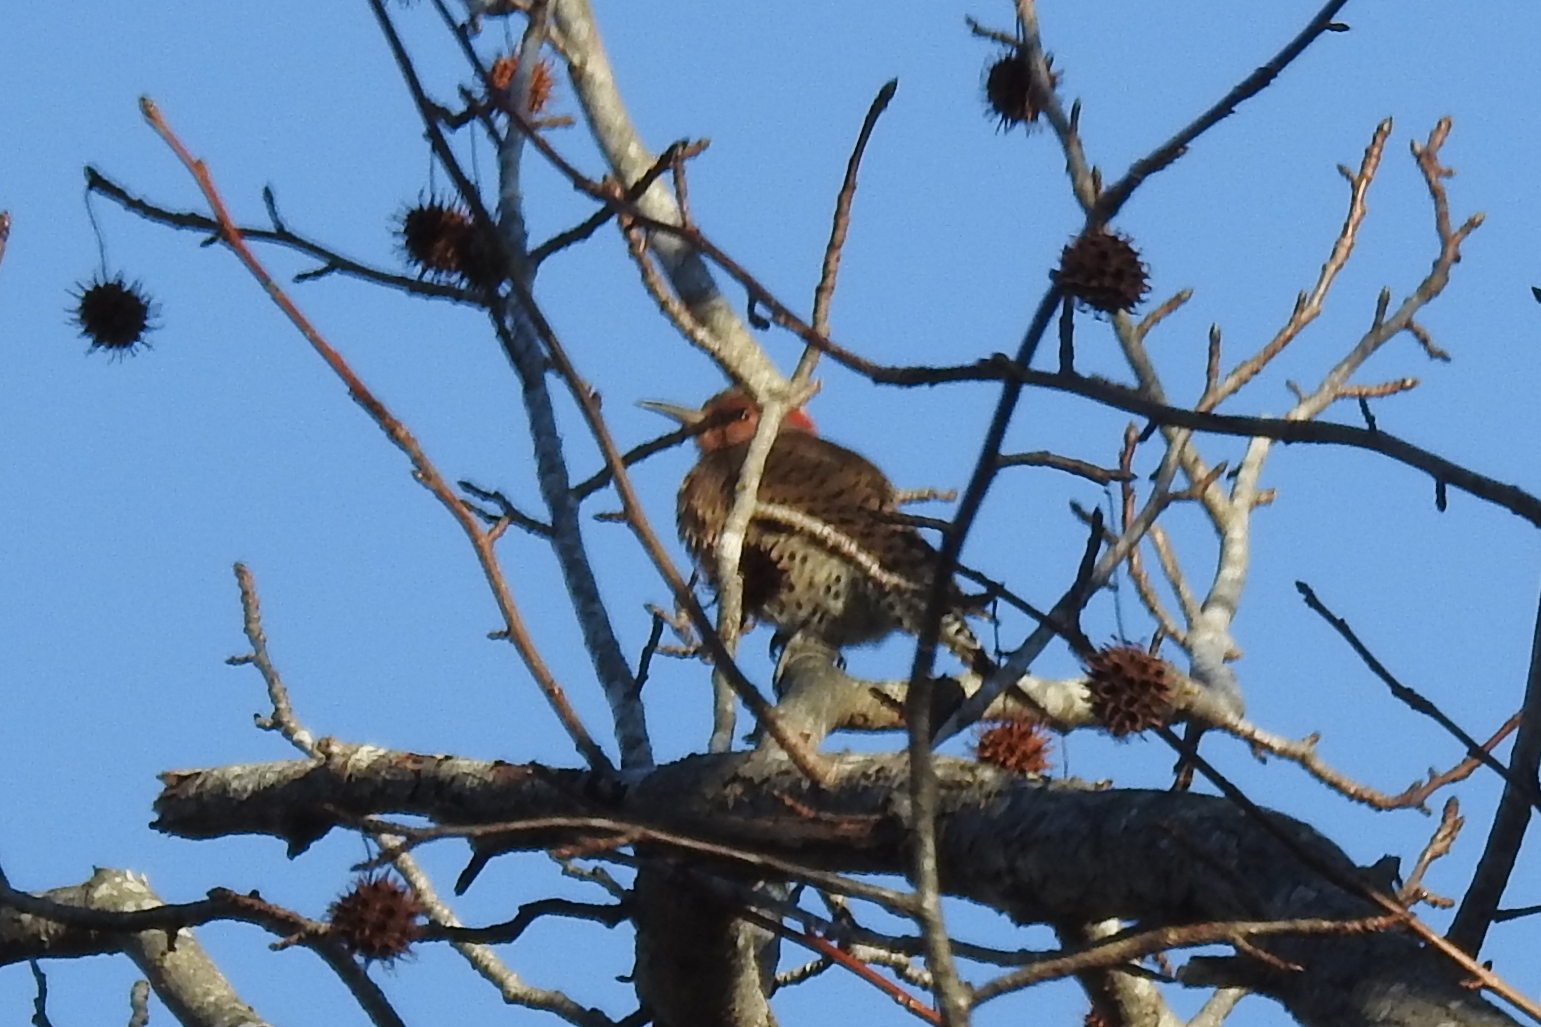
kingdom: Animalia
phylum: Chordata
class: Aves
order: Piciformes
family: Picidae
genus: Colaptes
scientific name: Colaptes auratus
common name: Northern flicker
